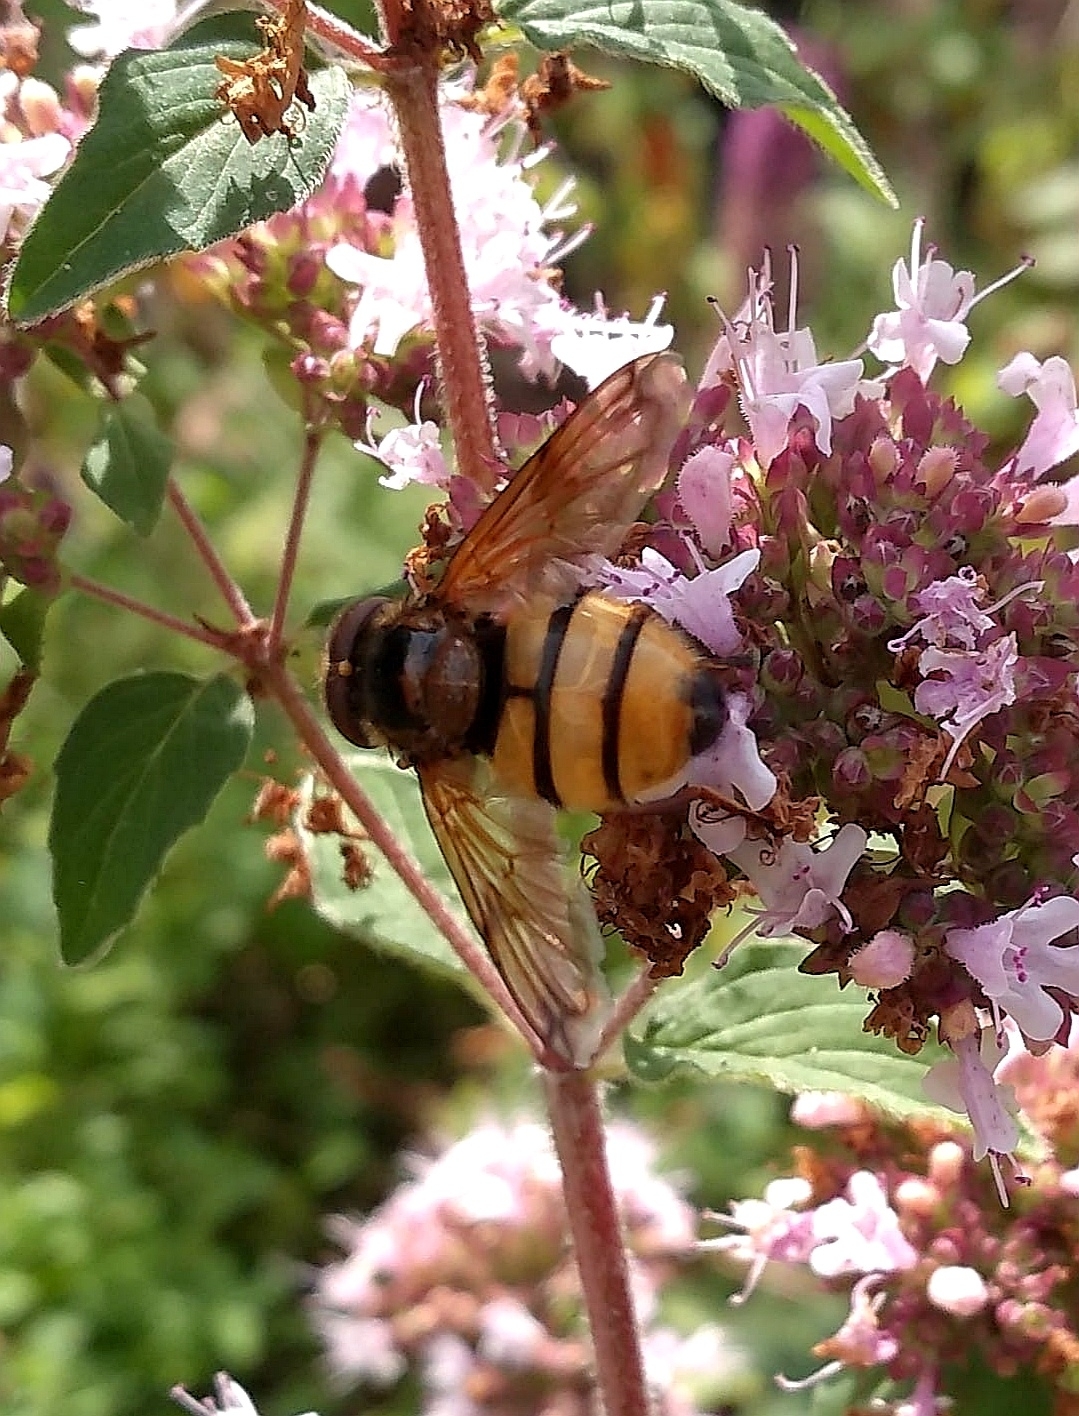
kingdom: Animalia
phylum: Arthropoda
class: Insecta
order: Diptera
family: Syrphidae
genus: Volucella
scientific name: Volucella inanis
